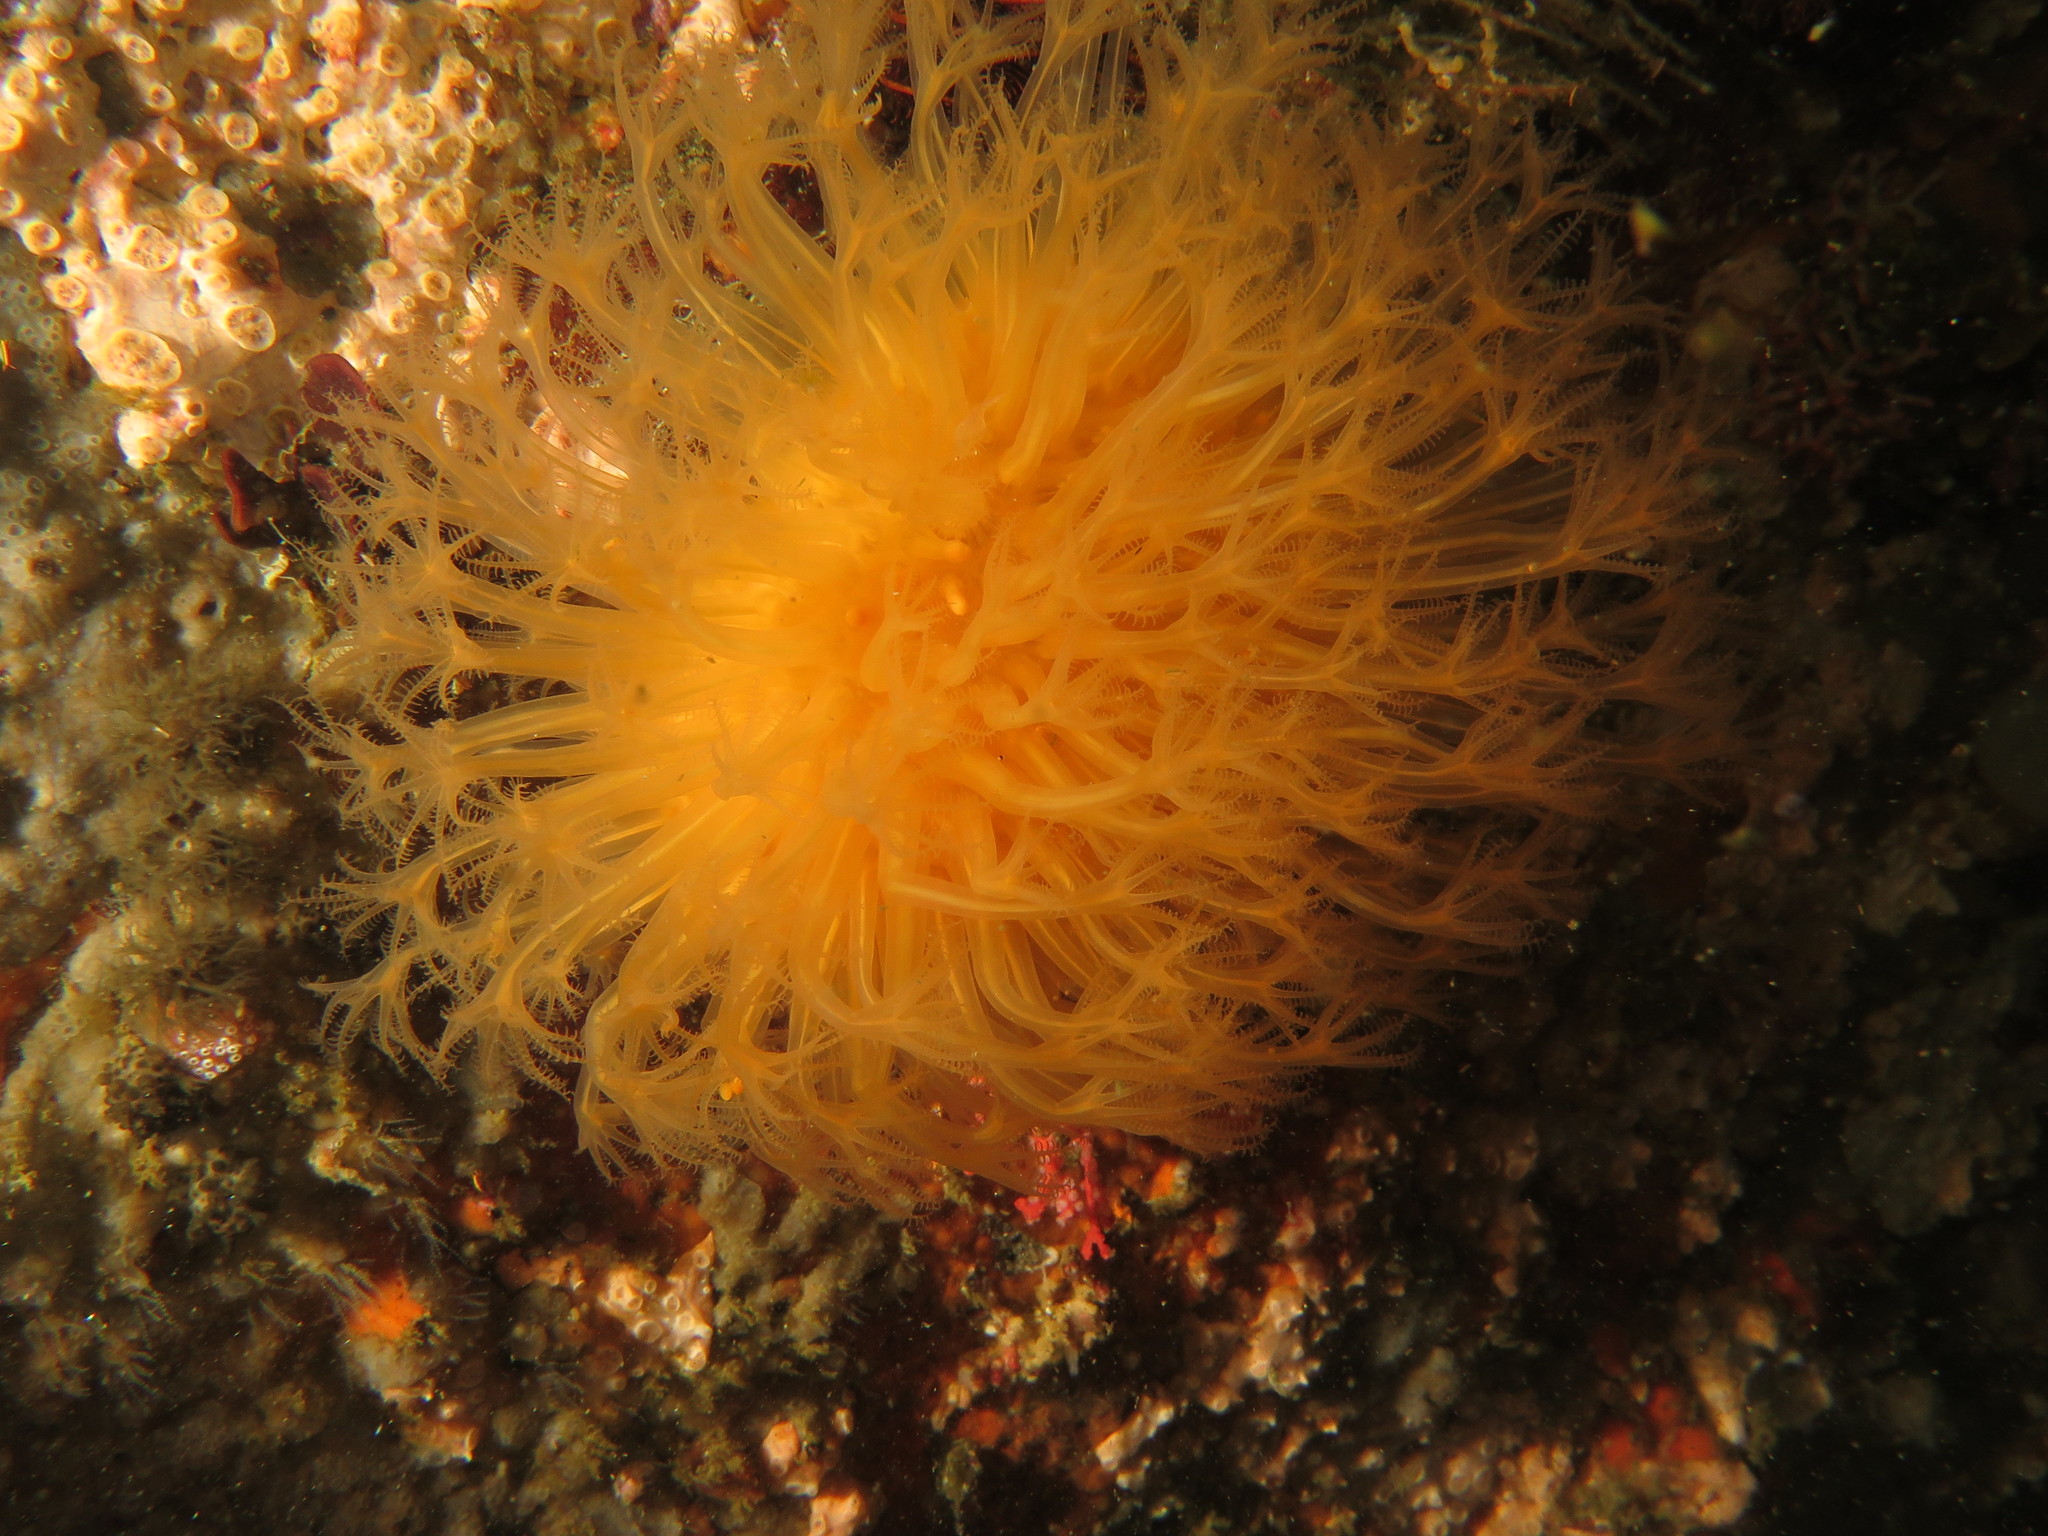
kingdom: Animalia
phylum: Cnidaria
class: Anthozoa
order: Malacalcyonacea
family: Malacacanthidae
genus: Malacacanthus
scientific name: Malacacanthus capensis
